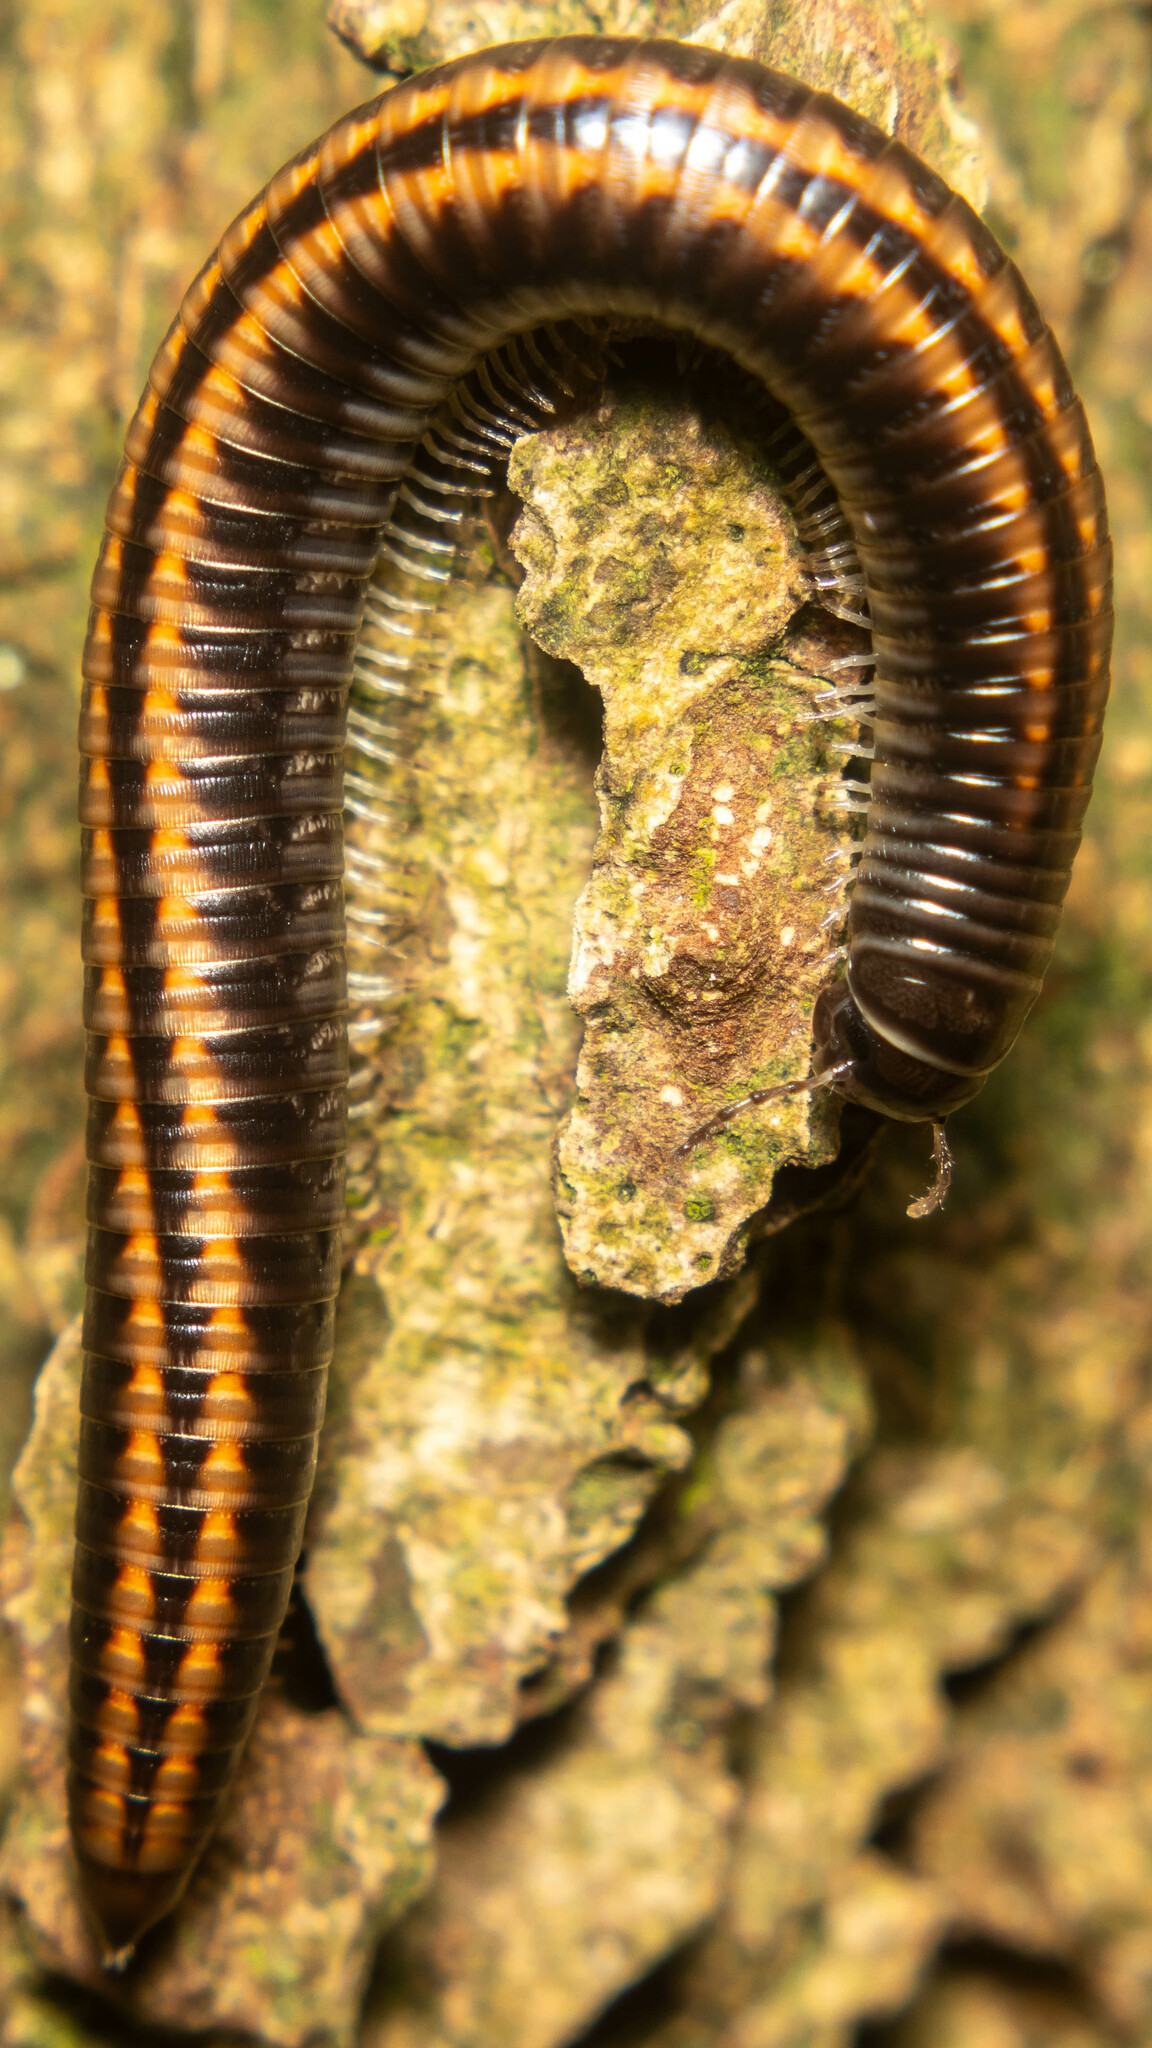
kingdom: Animalia
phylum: Arthropoda
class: Diplopoda
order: Julida
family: Julidae
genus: Ommatoiulus
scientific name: Ommatoiulus sabulosus
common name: Striped millipede
